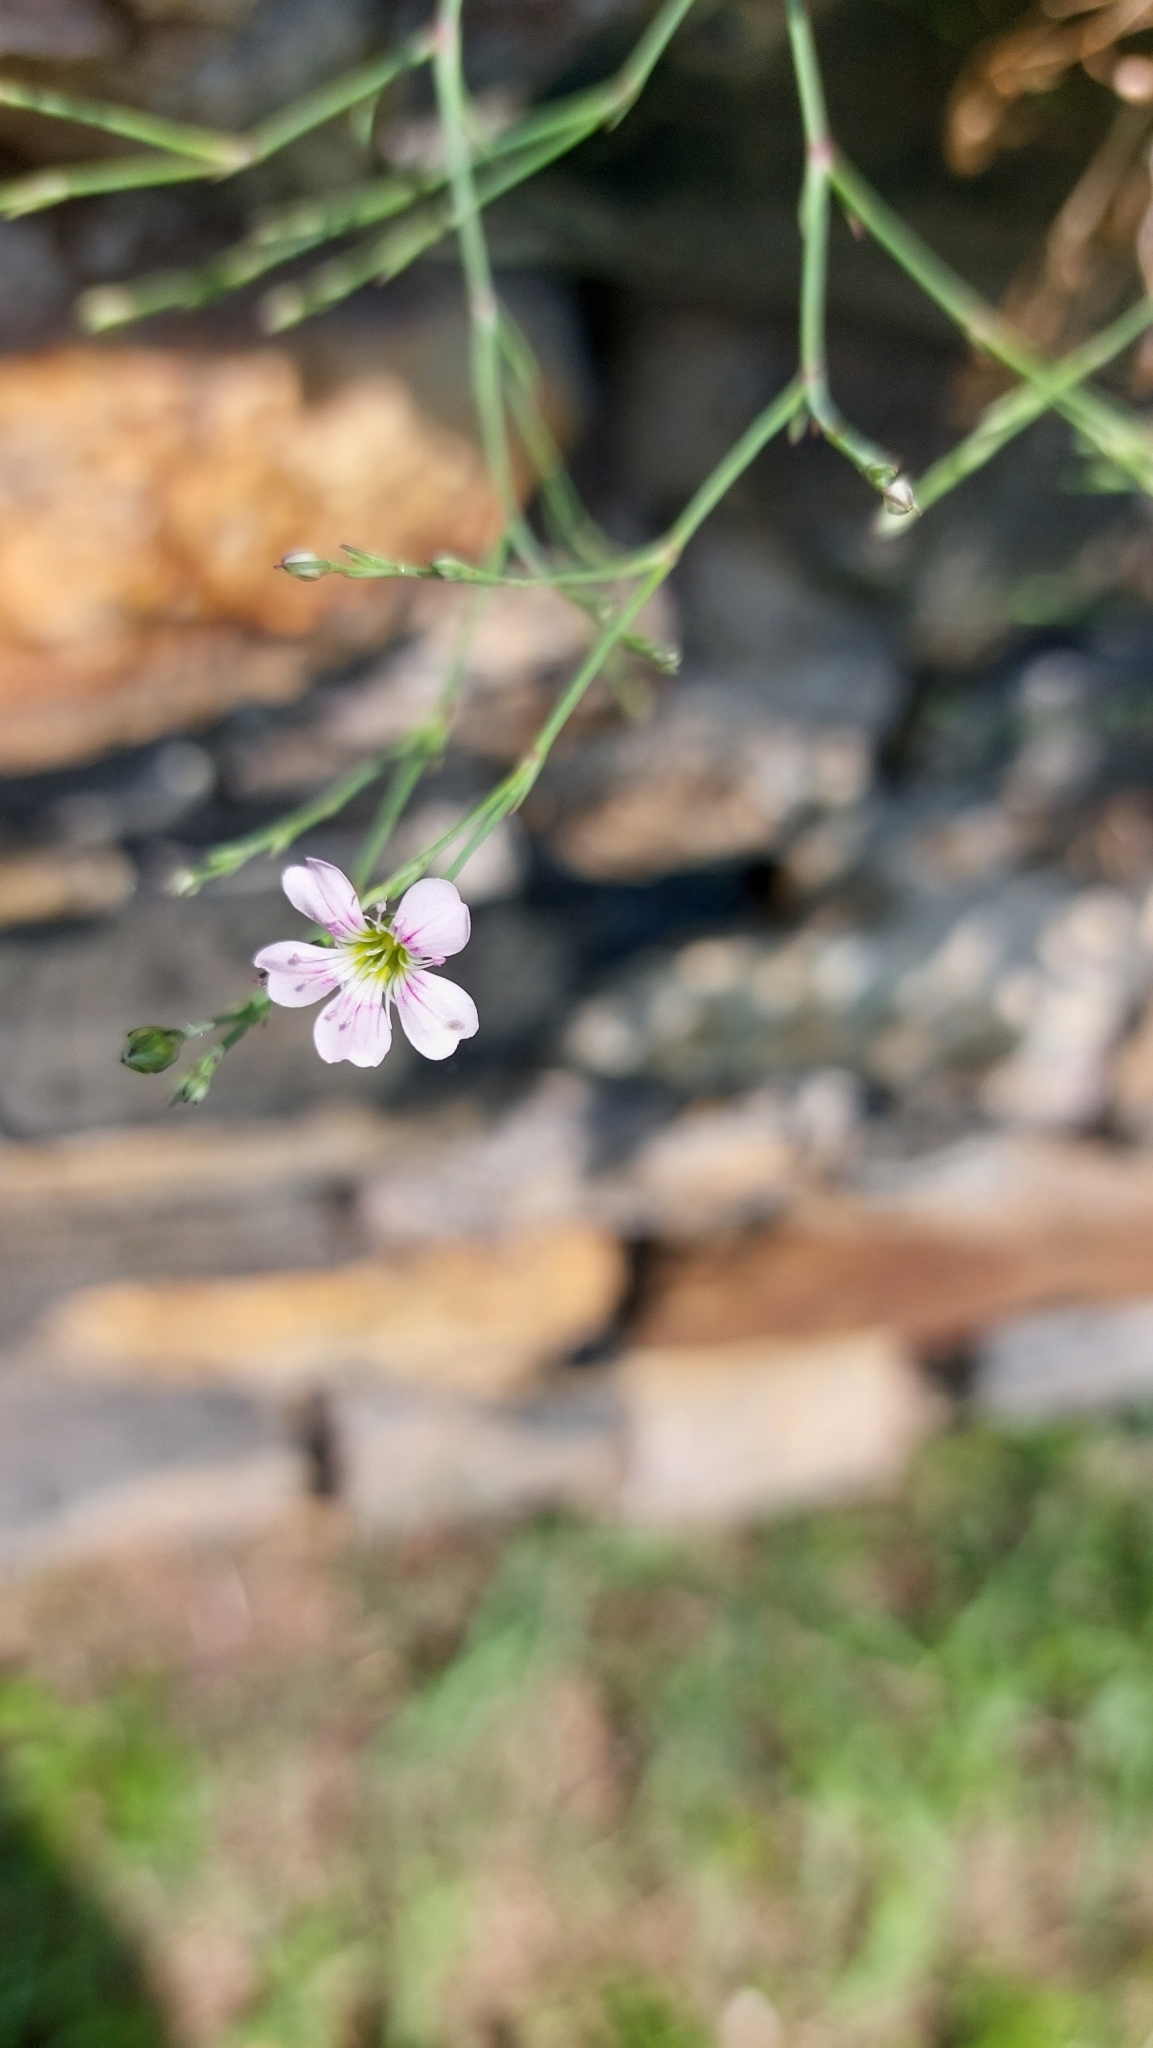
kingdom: Plantae
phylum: Tracheophyta
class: Magnoliopsida
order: Caryophyllales
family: Caryophyllaceae
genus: Petrorhagia
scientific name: Petrorhagia saxifraga
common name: Tunicflower
